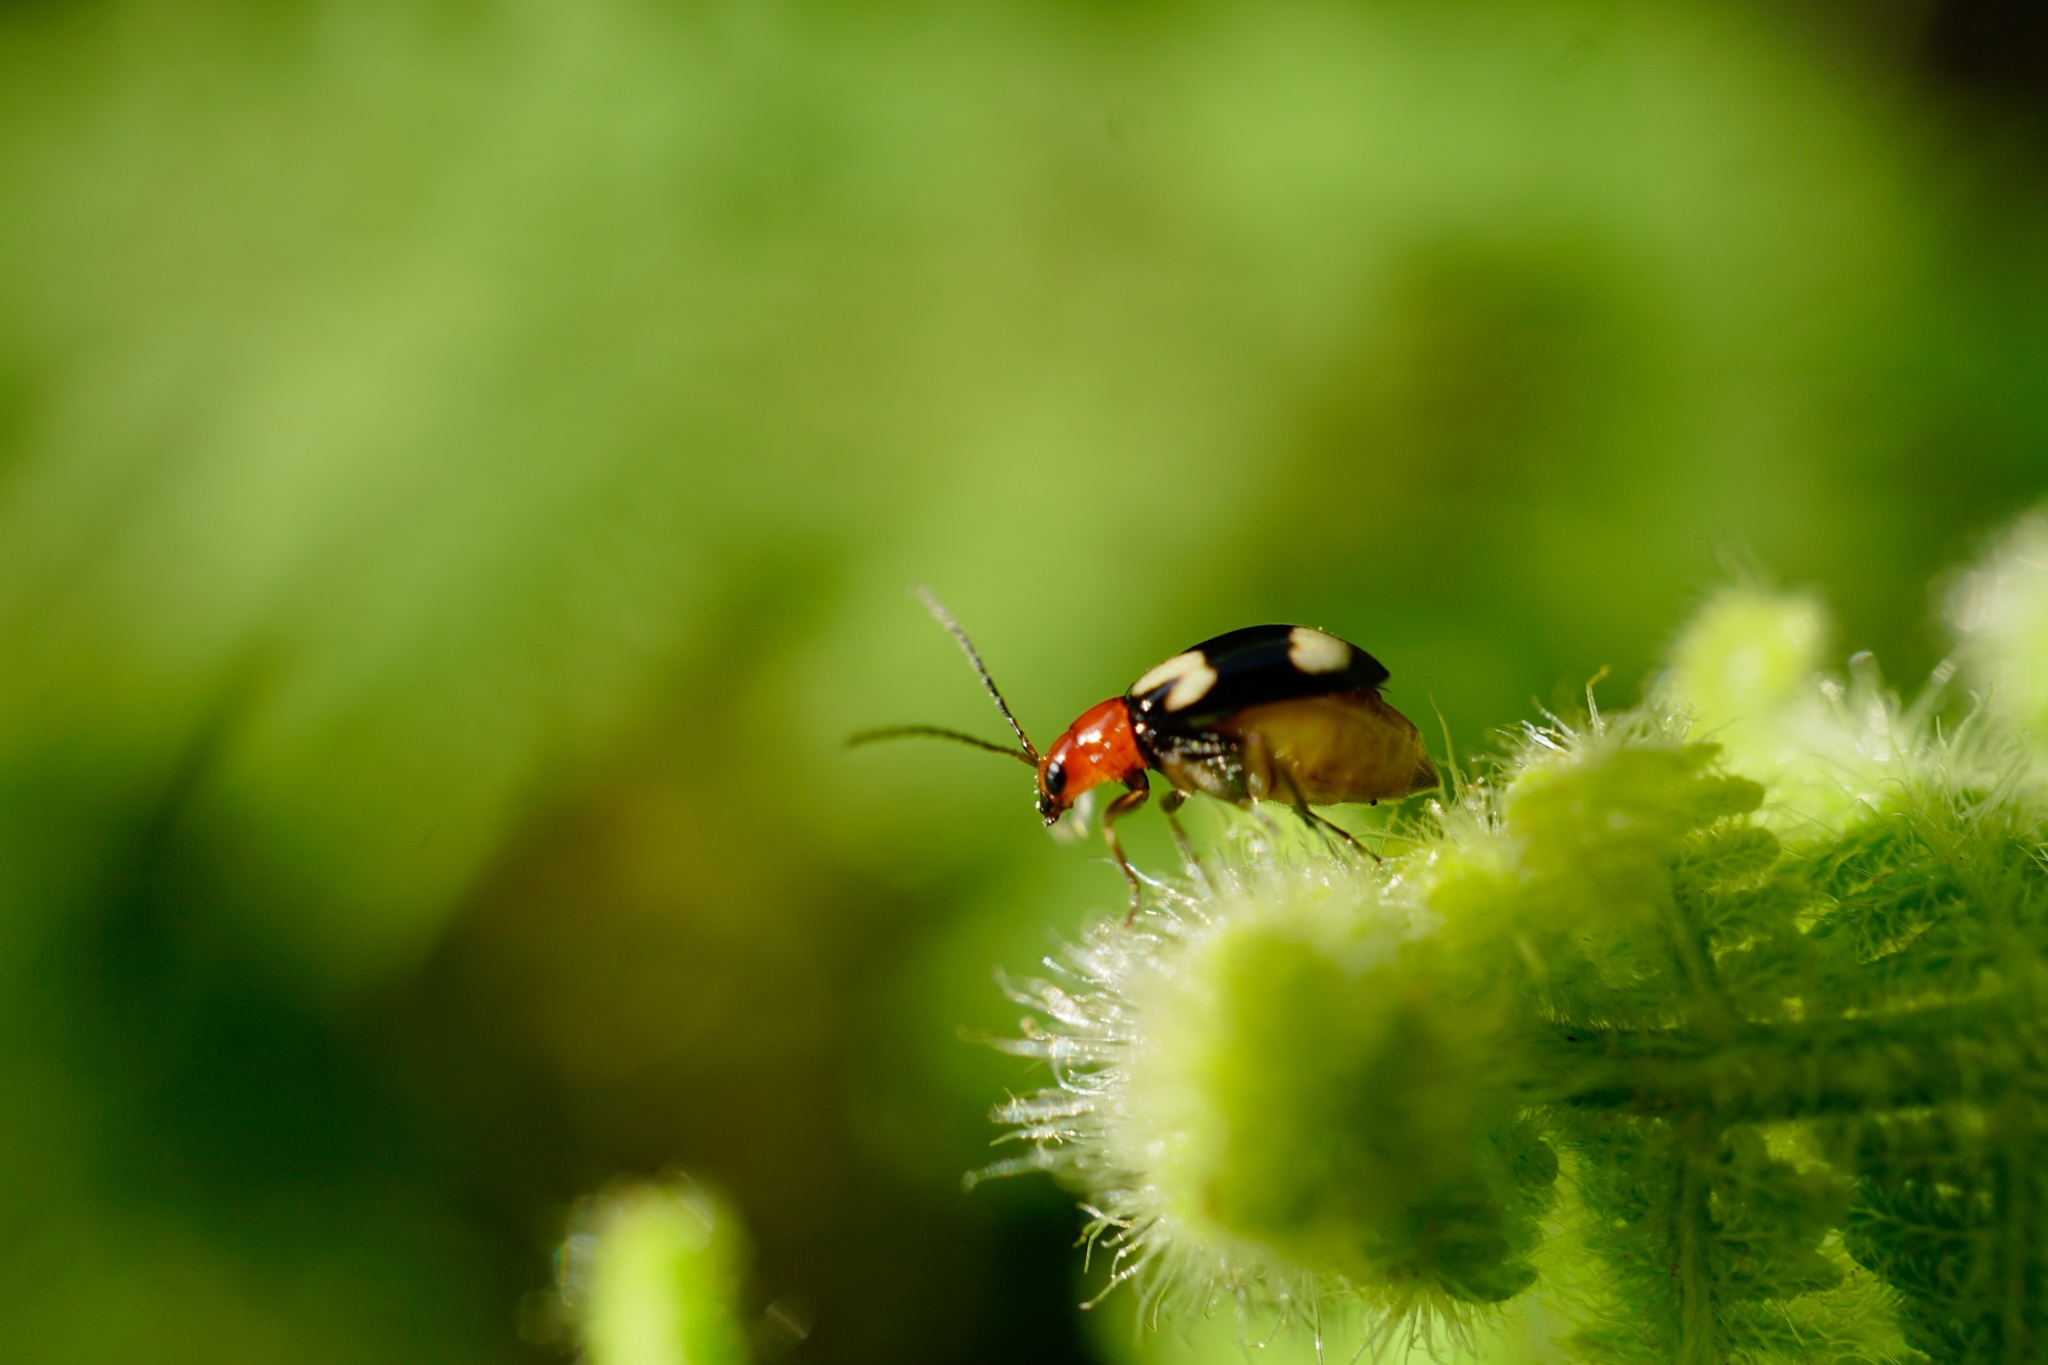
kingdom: Animalia
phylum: Arthropoda
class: Insecta
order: Coleoptera
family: Chrysomelidae
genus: Monolepta
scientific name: Monolepta signata
